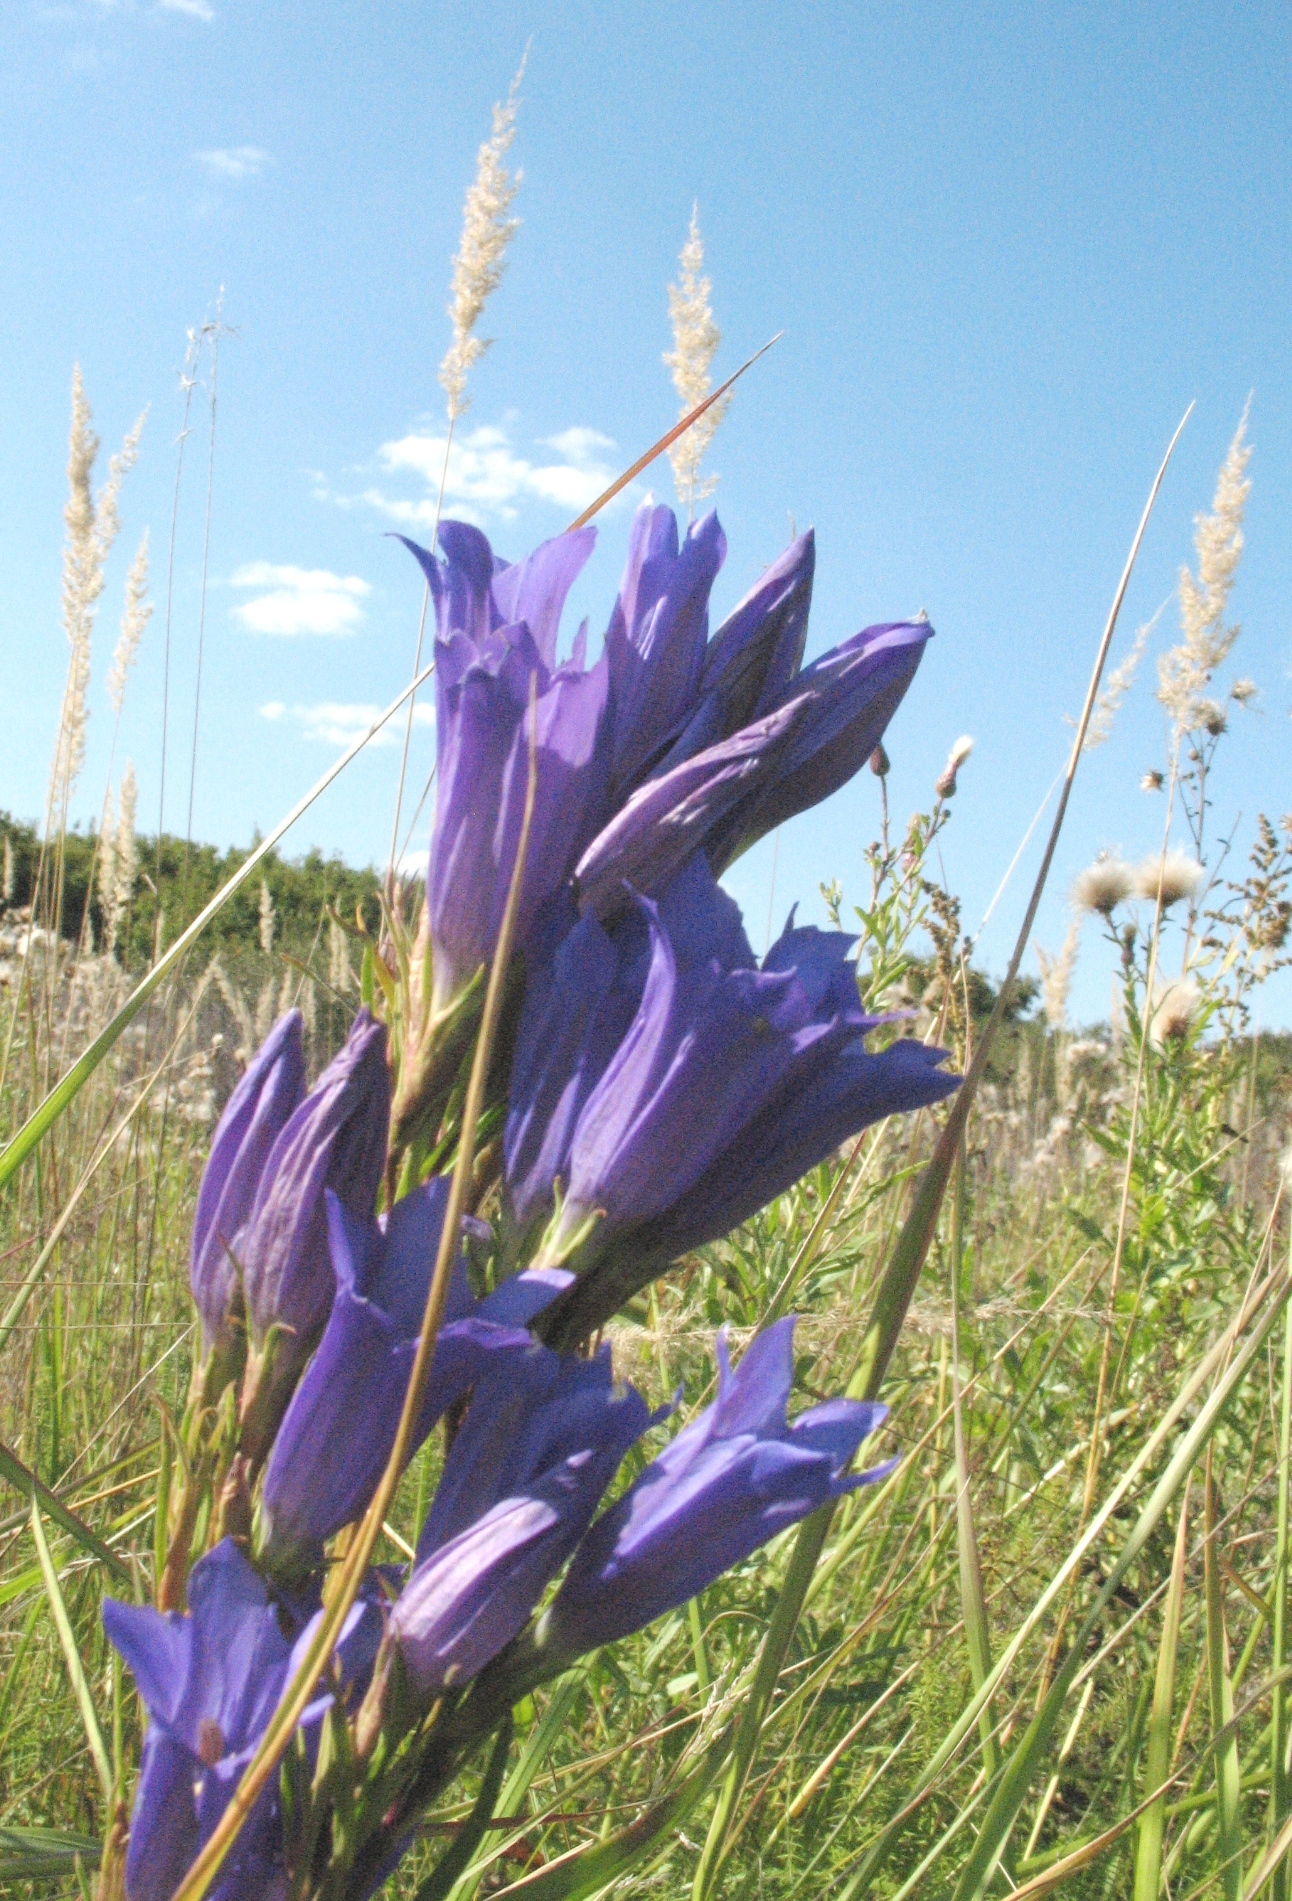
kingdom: Plantae
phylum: Tracheophyta
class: Magnoliopsida
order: Gentianales
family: Gentianaceae
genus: Gentiana
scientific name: Gentiana pneumonanthe
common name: Marsh gentian
